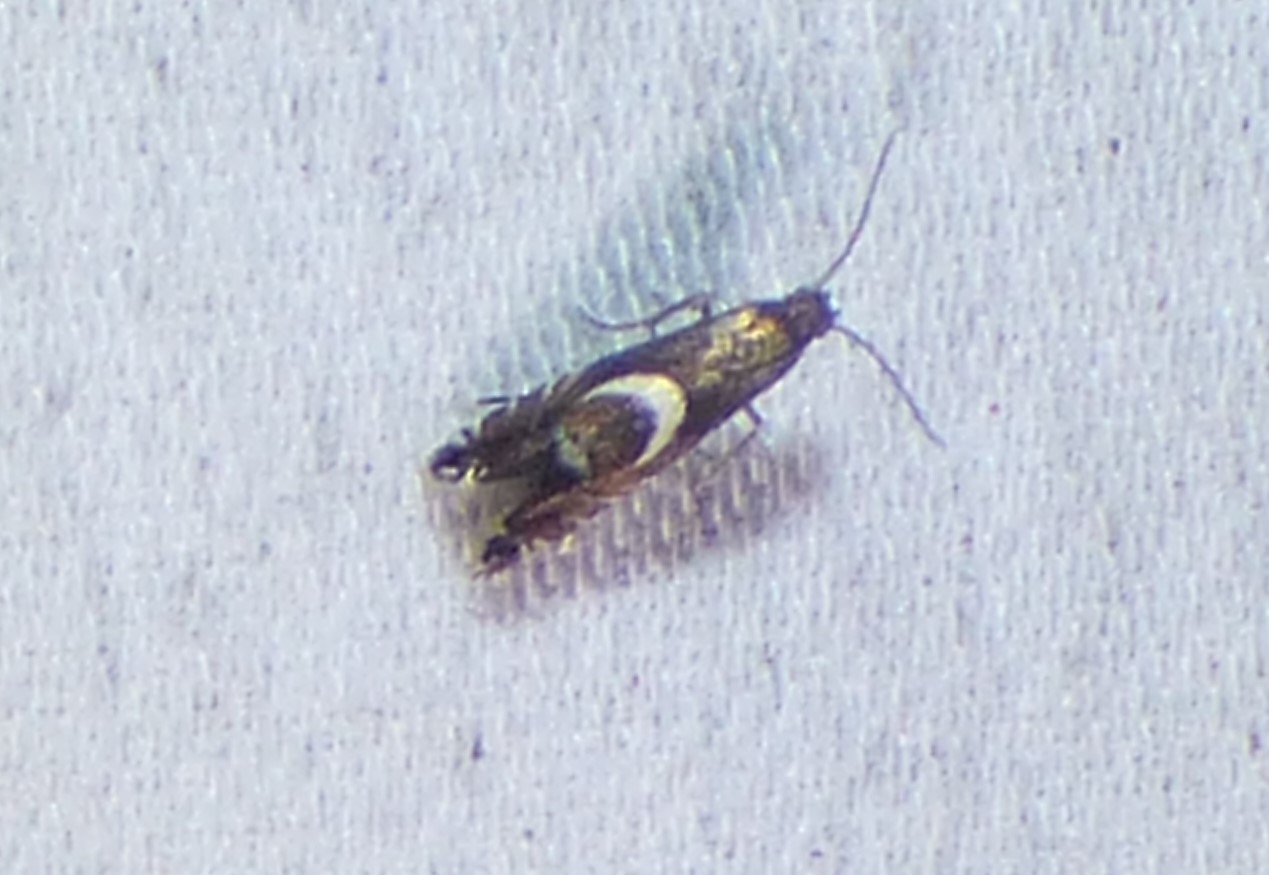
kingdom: Animalia
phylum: Arthropoda
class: Insecta
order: Lepidoptera
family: Glyphipterigidae
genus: Glyphipterix
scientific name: Glyphipterix Diploschizia impigritella
